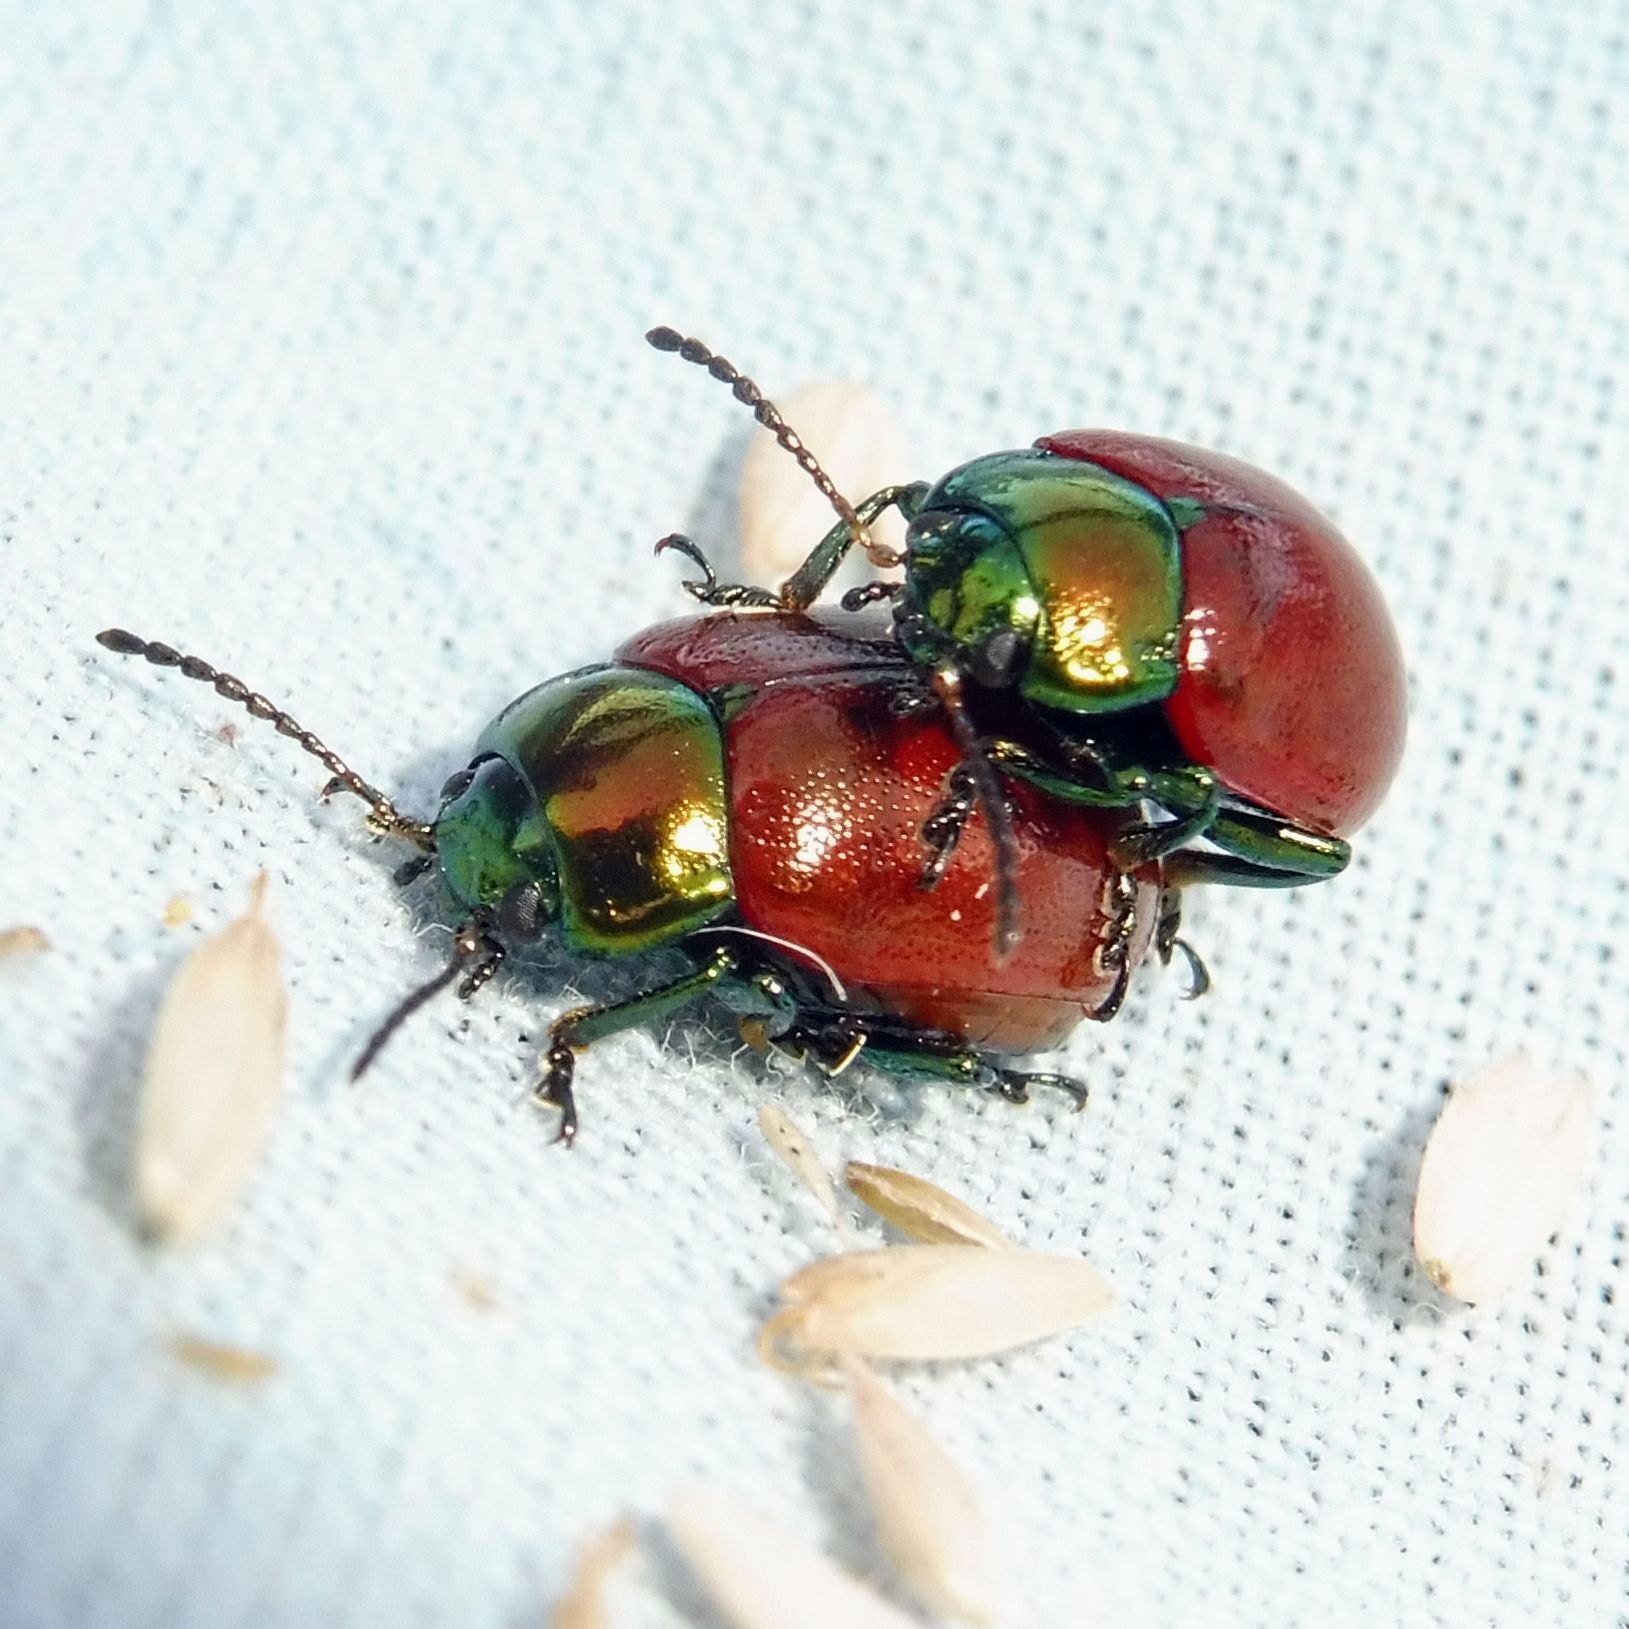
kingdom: Animalia
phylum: Arthropoda
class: Insecta
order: Coleoptera
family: Chrysomelidae
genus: Chrysomela
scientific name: Chrysomela polita
